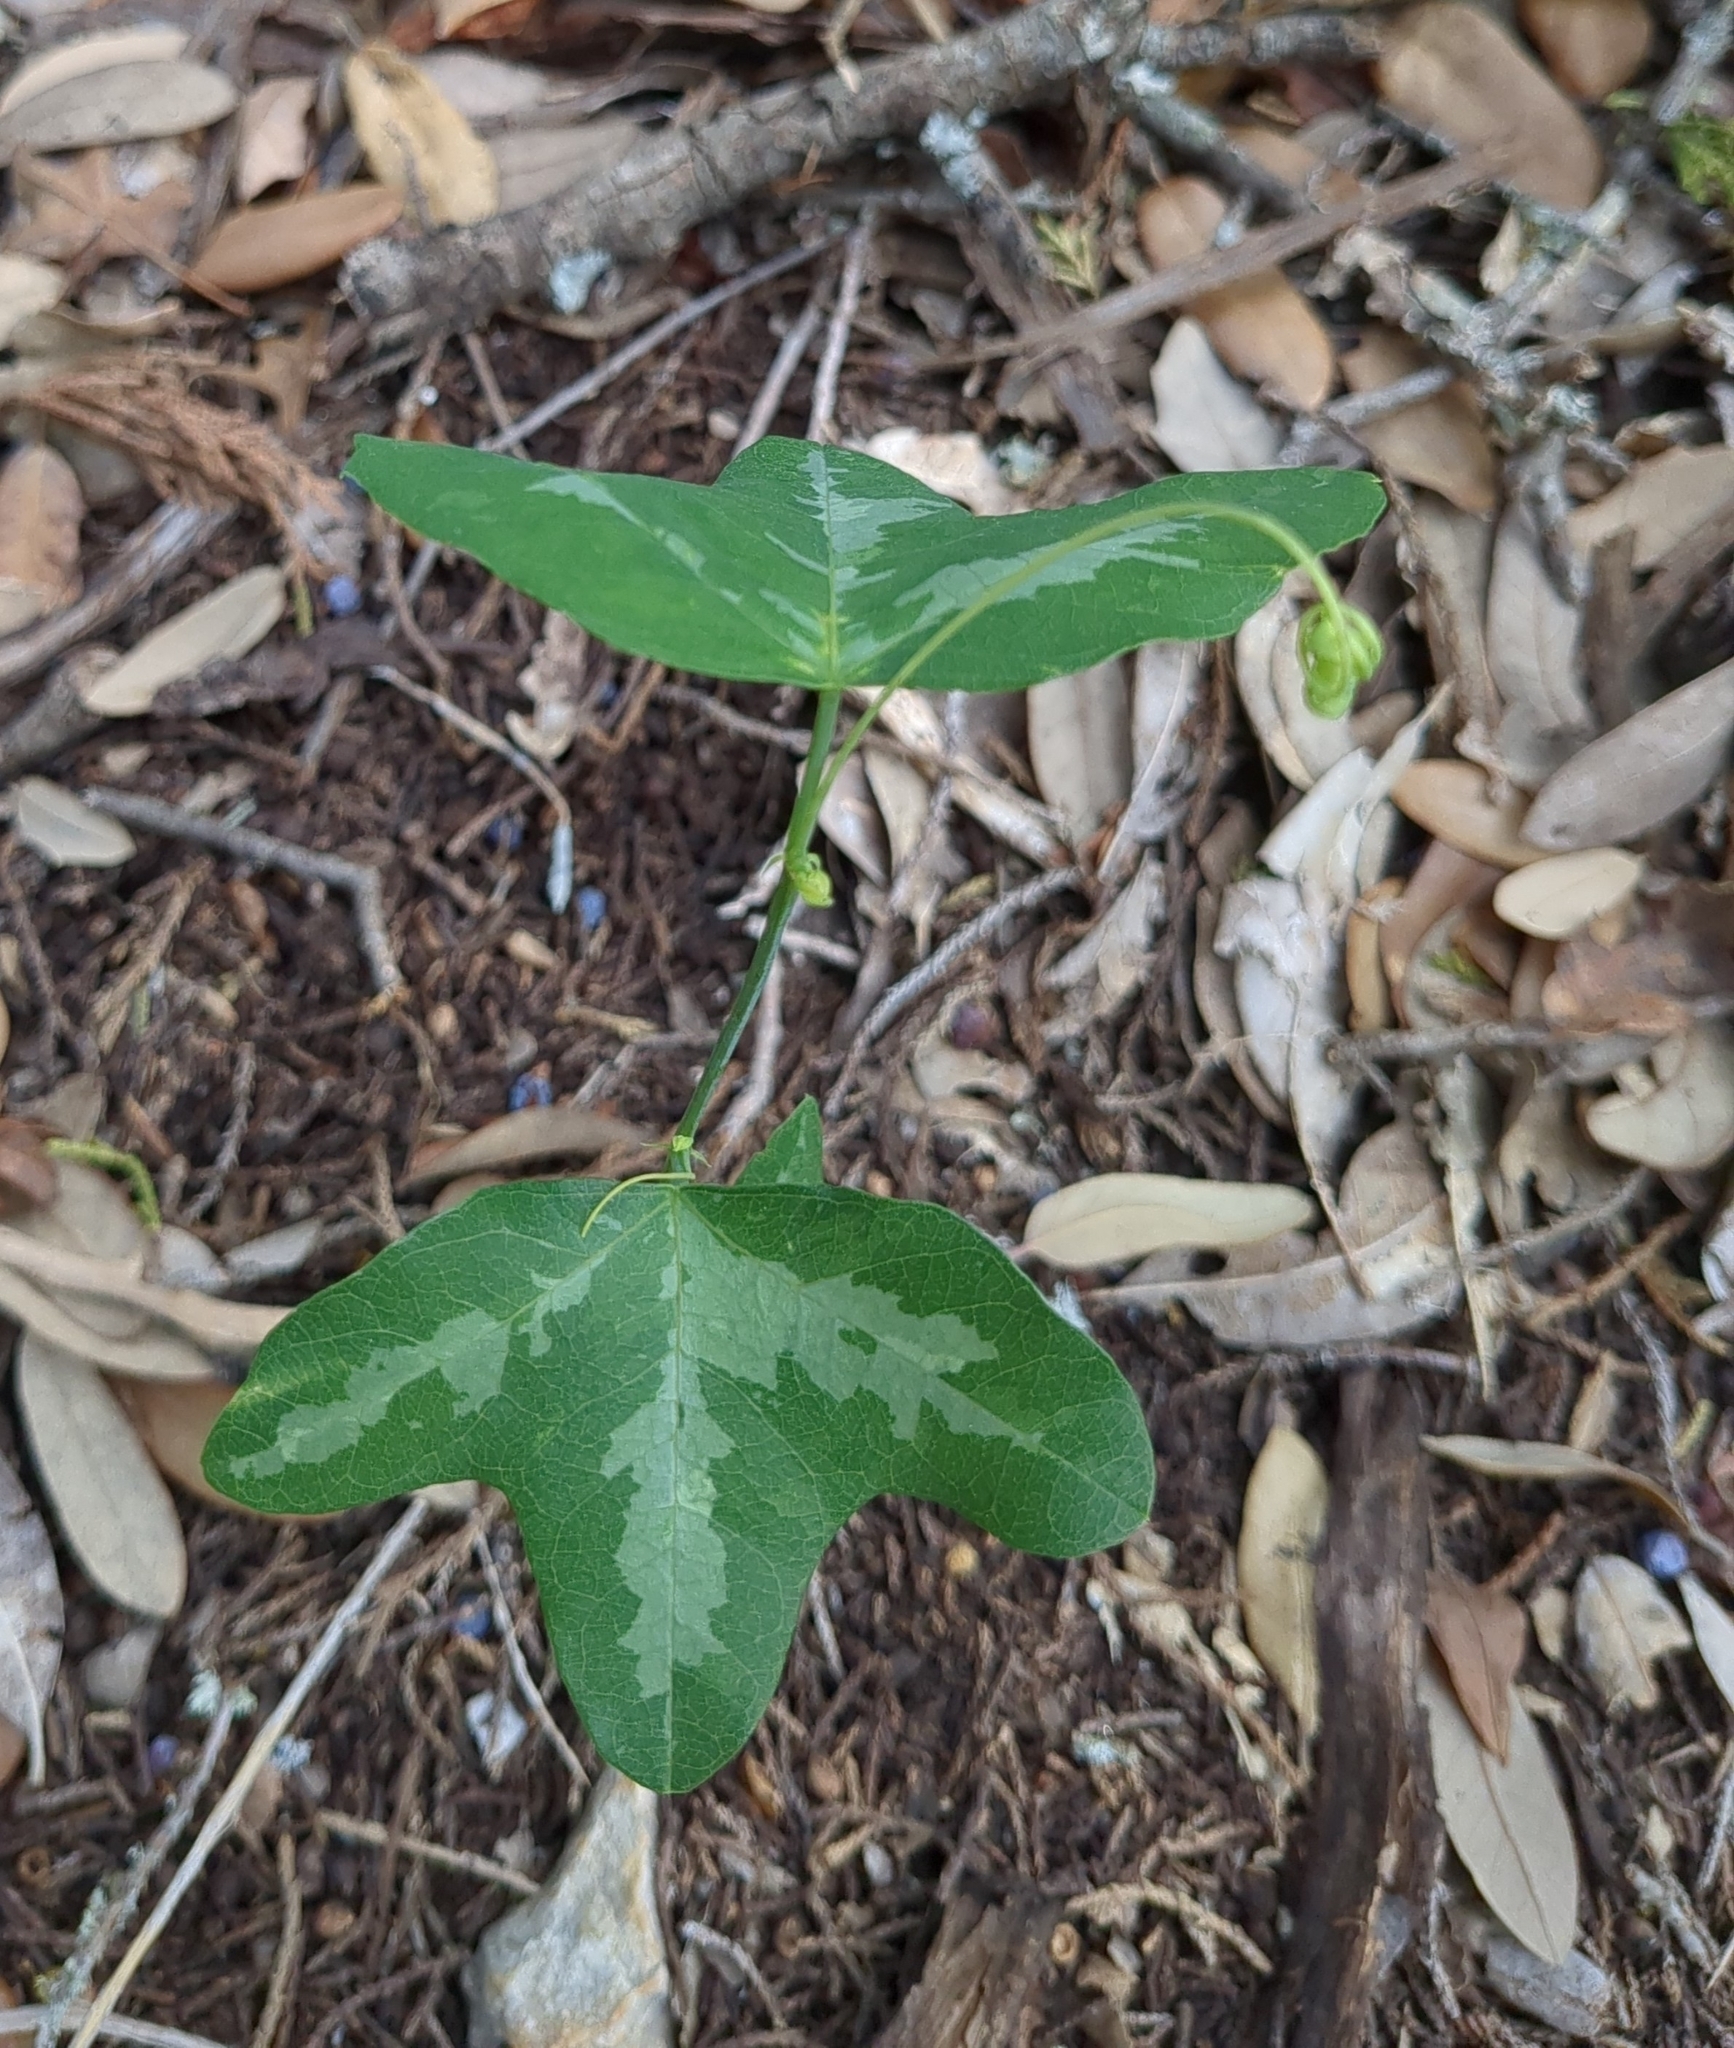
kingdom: Plantae
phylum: Tracheophyta
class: Magnoliopsida
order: Malpighiales
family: Passifloraceae
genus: Passiflora
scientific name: Passiflora lutea
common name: Yellow passionflower
